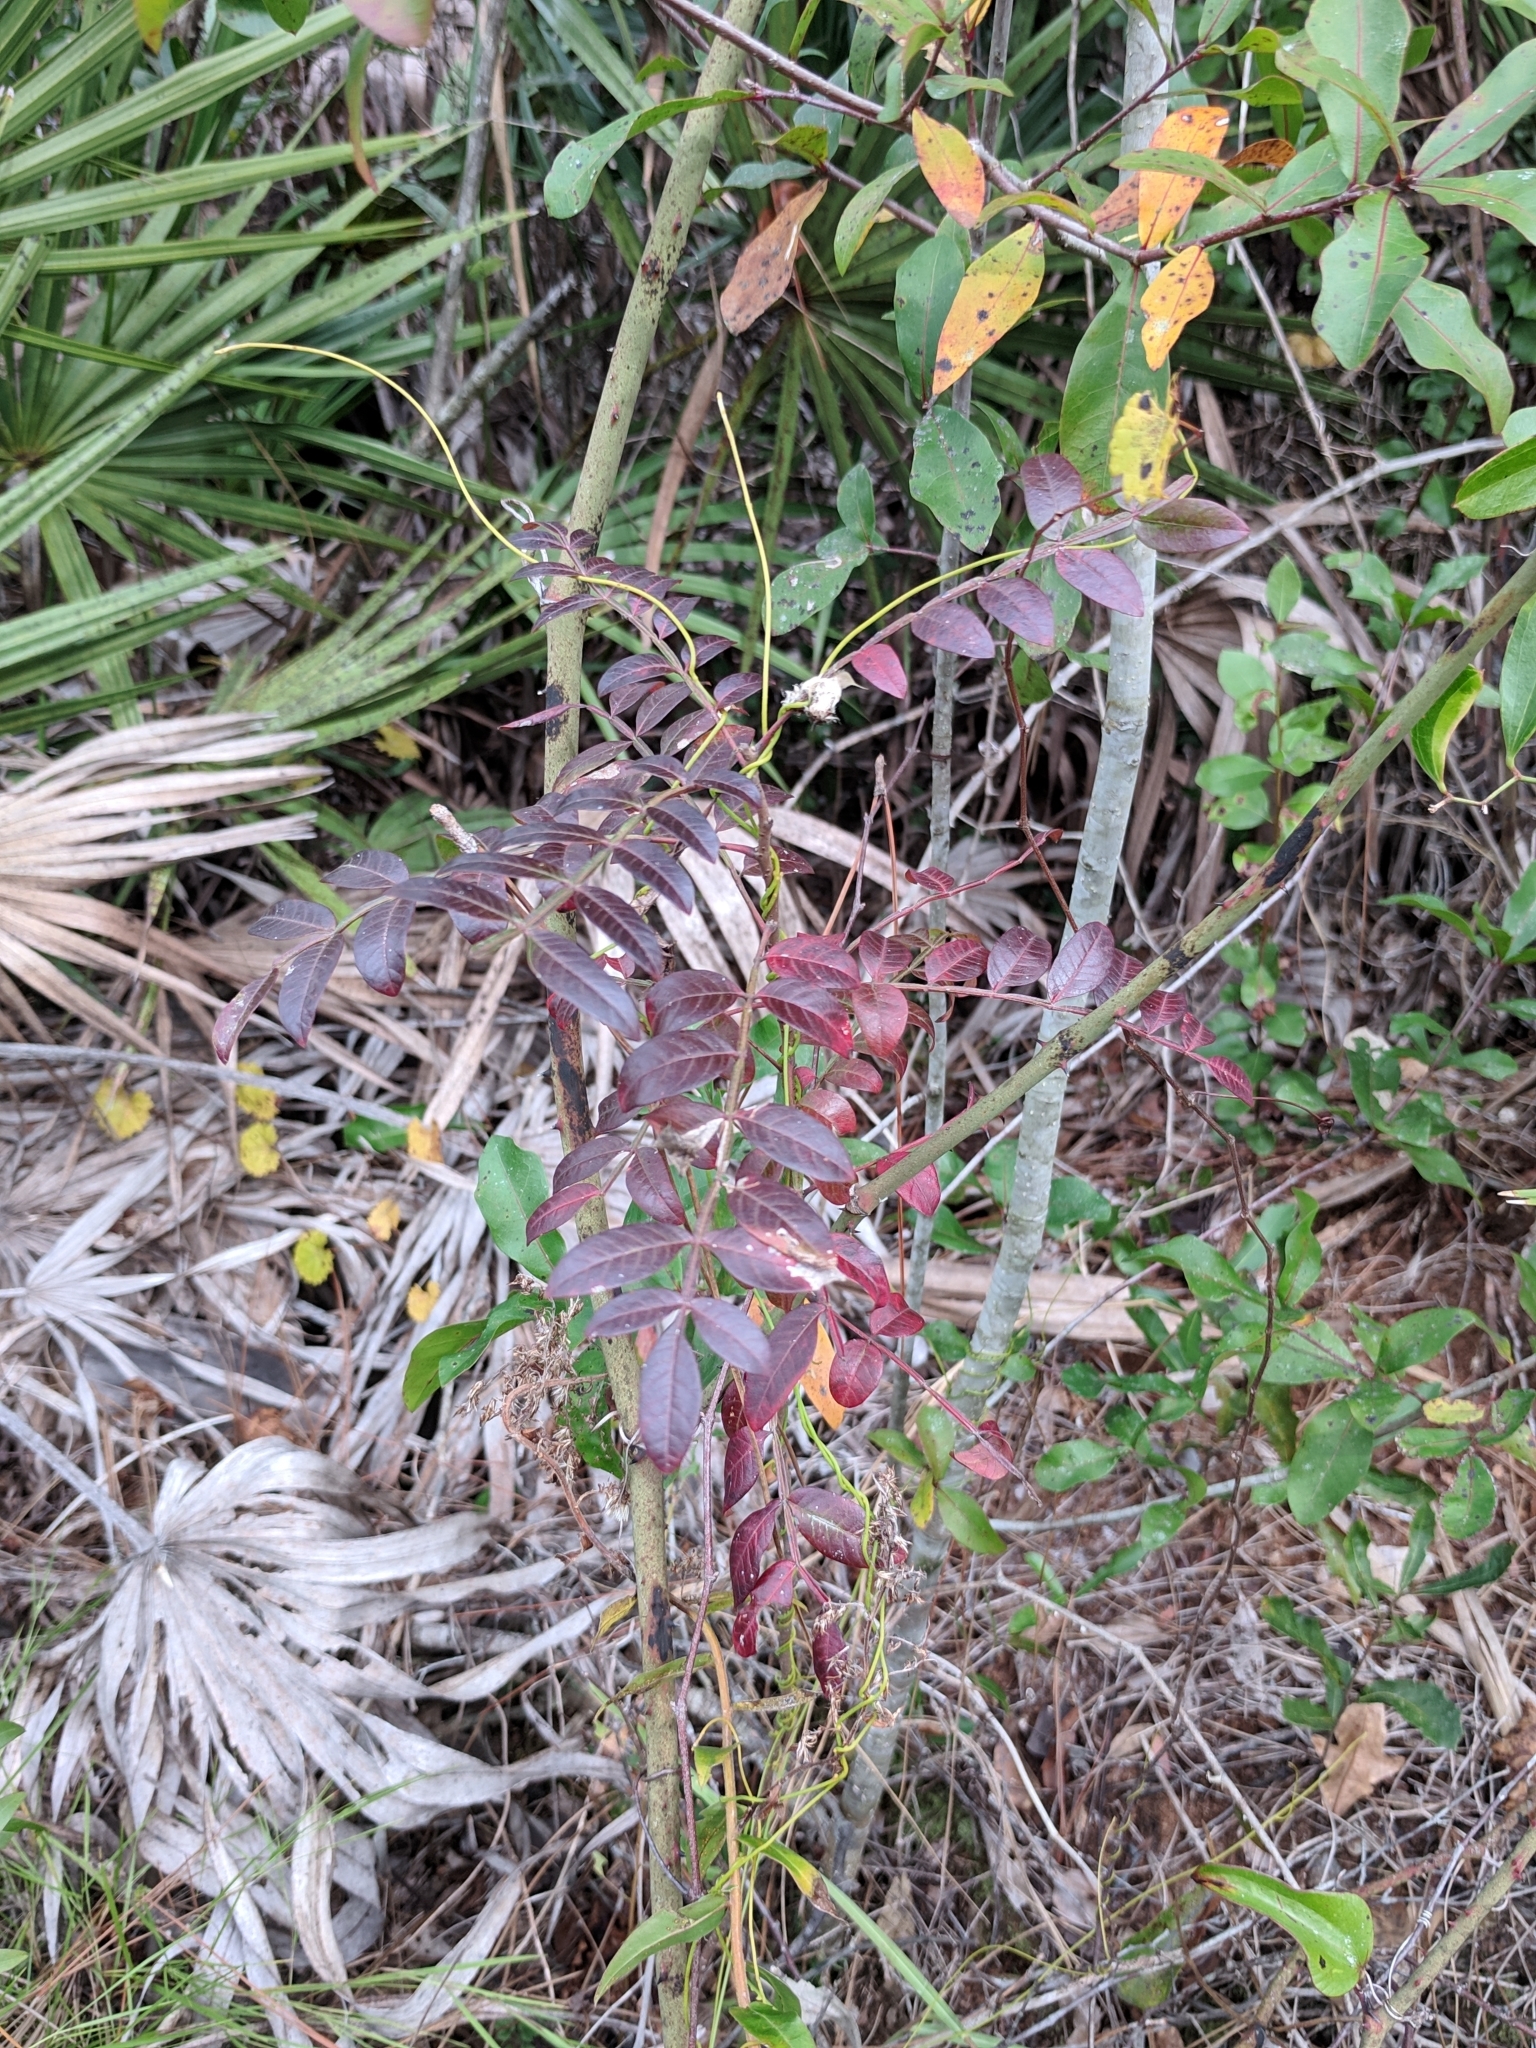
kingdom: Plantae
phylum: Tracheophyta
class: Magnoliopsida
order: Sapindales
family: Anacardiaceae
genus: Rhus
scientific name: Rhus copallina
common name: Shining sumac
